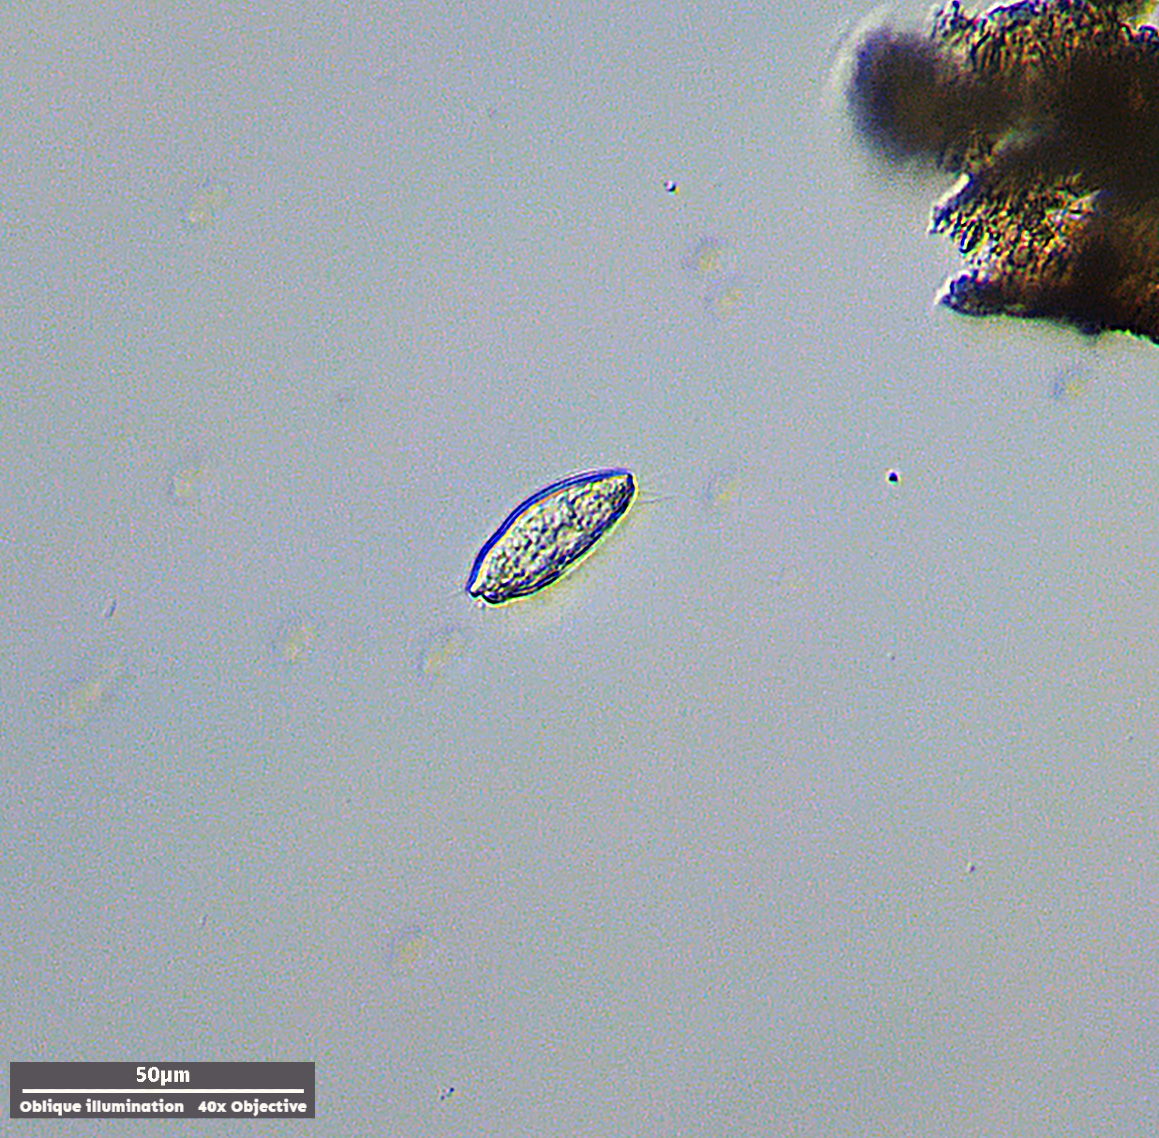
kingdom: Chromista
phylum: Ciliophora
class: Nassophorea
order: Nassulida
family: Leptopharynidae
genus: Leptopharynx
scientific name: Leptopharynx costatus
